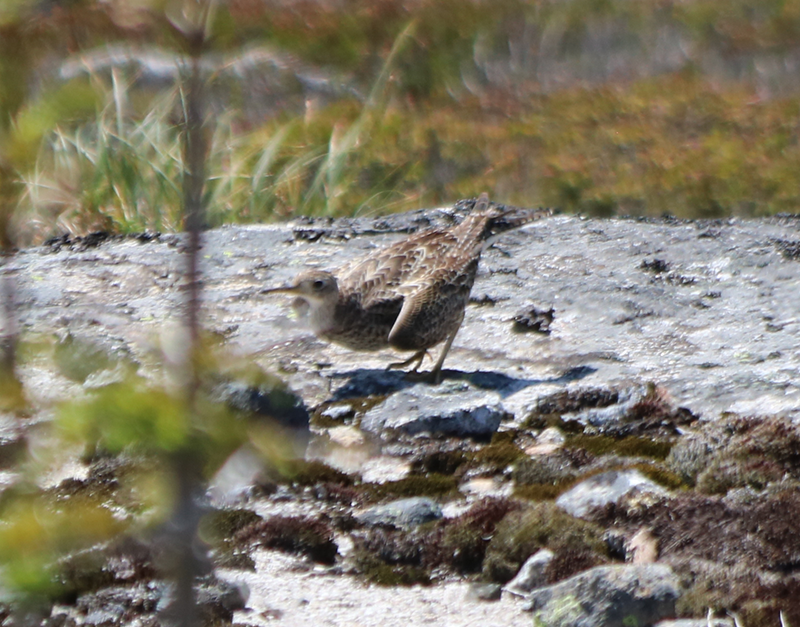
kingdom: Animalia
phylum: Chordata
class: Aves
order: Charadriiformes
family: Scolopacidae
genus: Bartramia
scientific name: Bartramia longicauda
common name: Upland sandpiper
